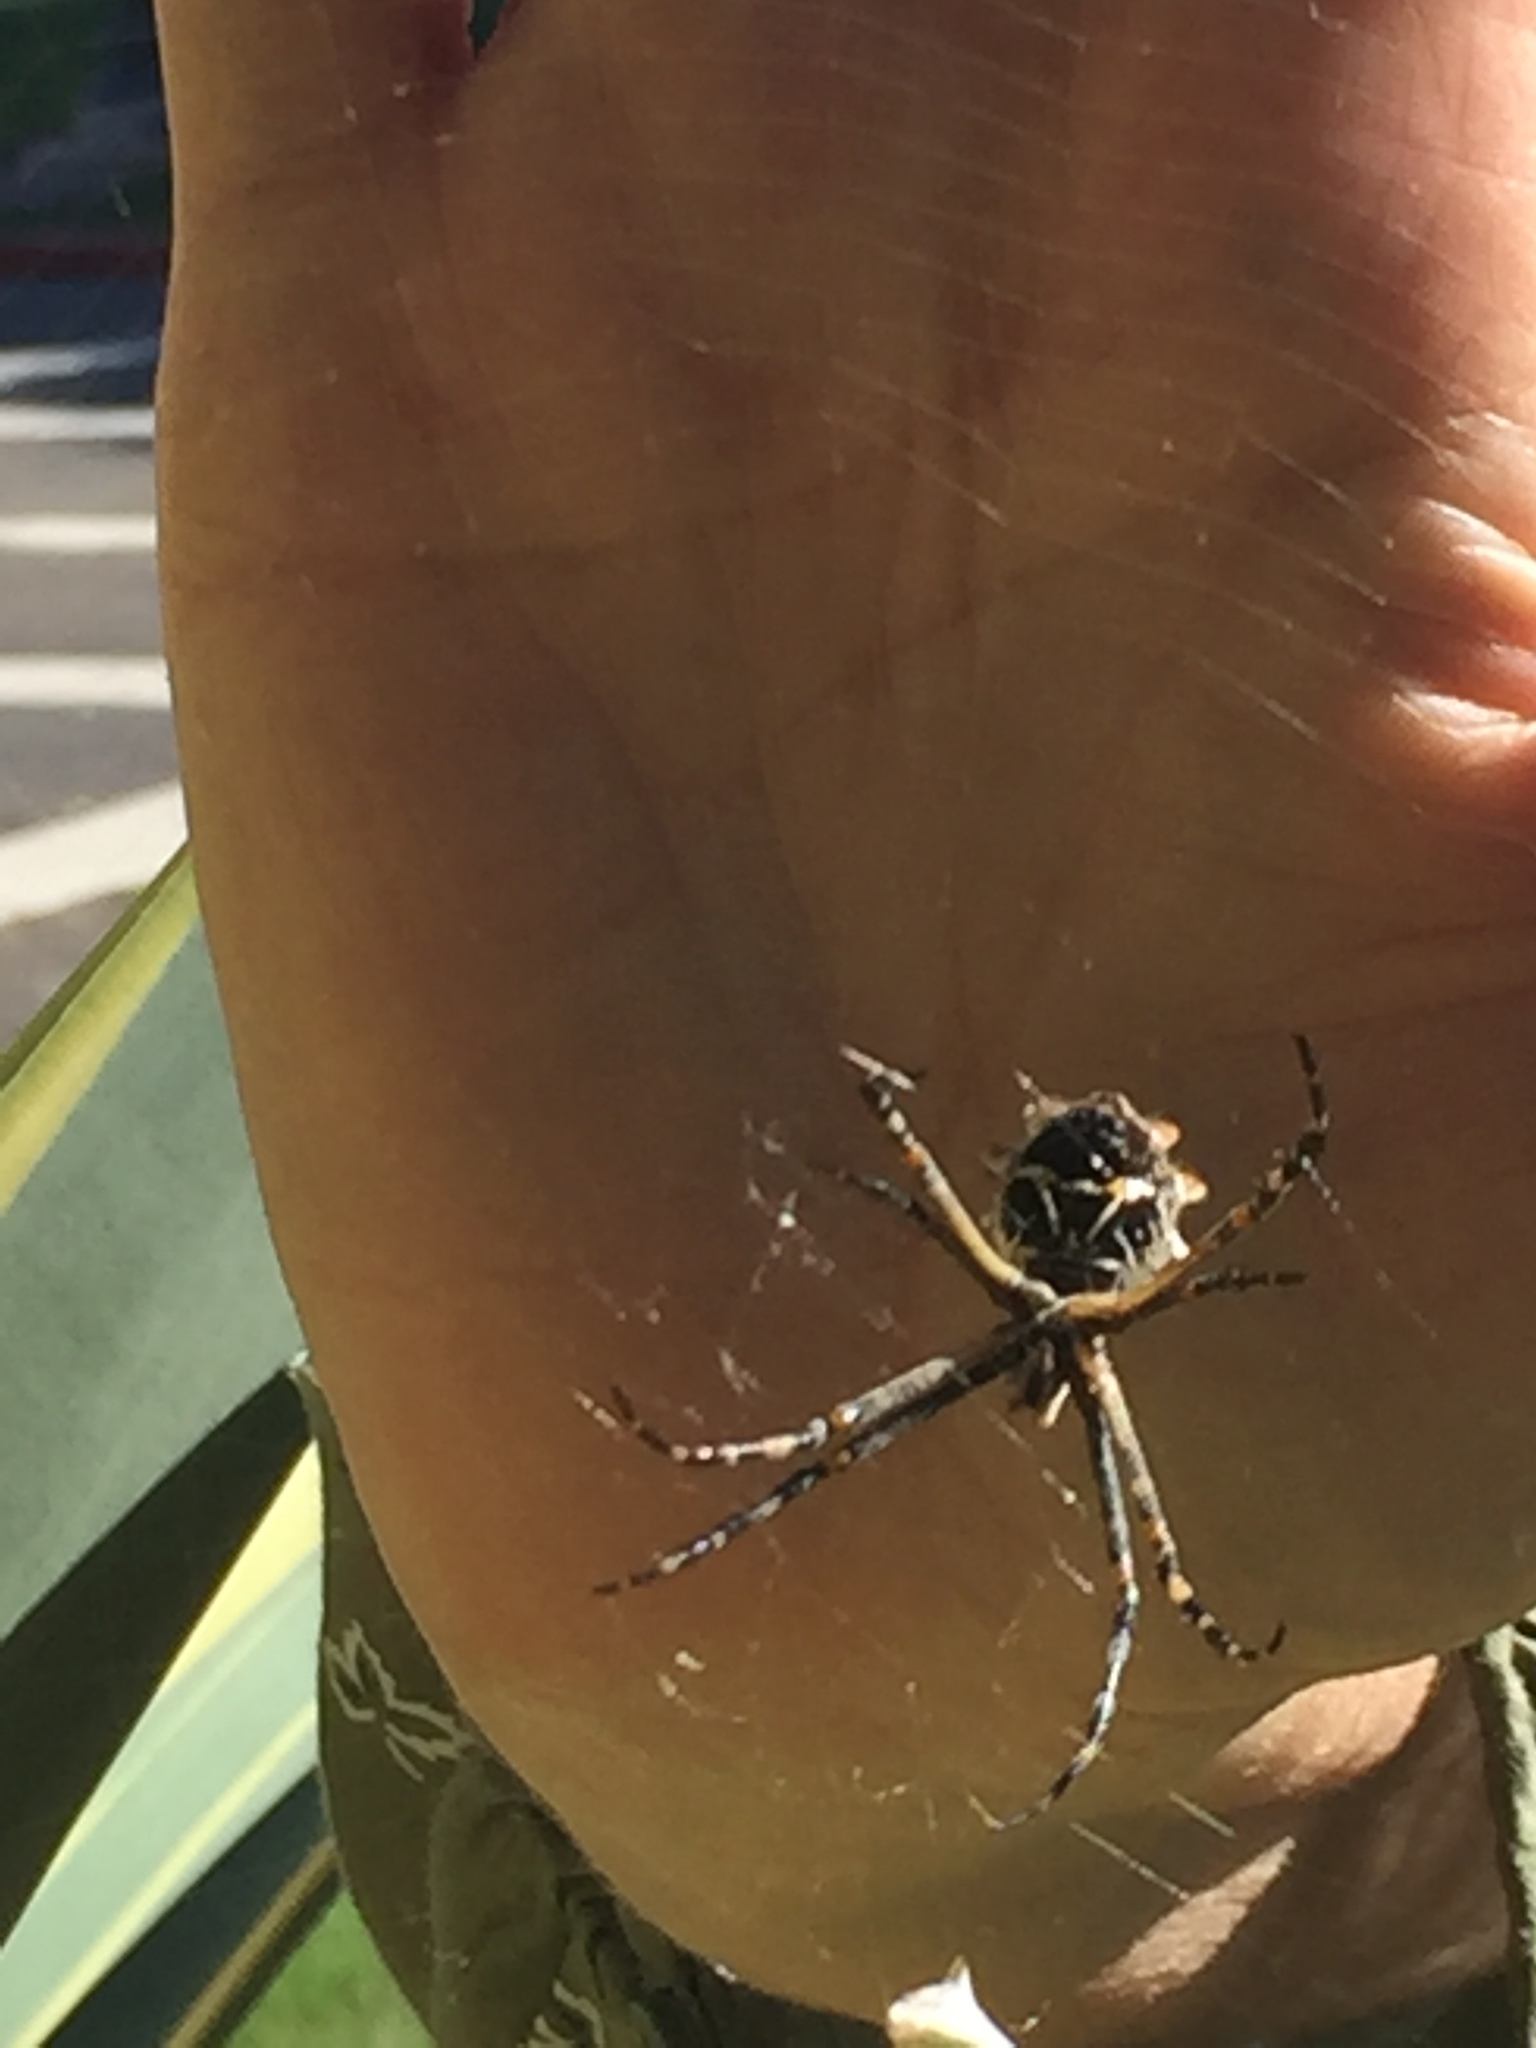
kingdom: Animalia
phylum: Arthropoda
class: Arachnida
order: Araneae
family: Araneidae
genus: Argiope
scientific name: Argiope argentata
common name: Orb weavers
